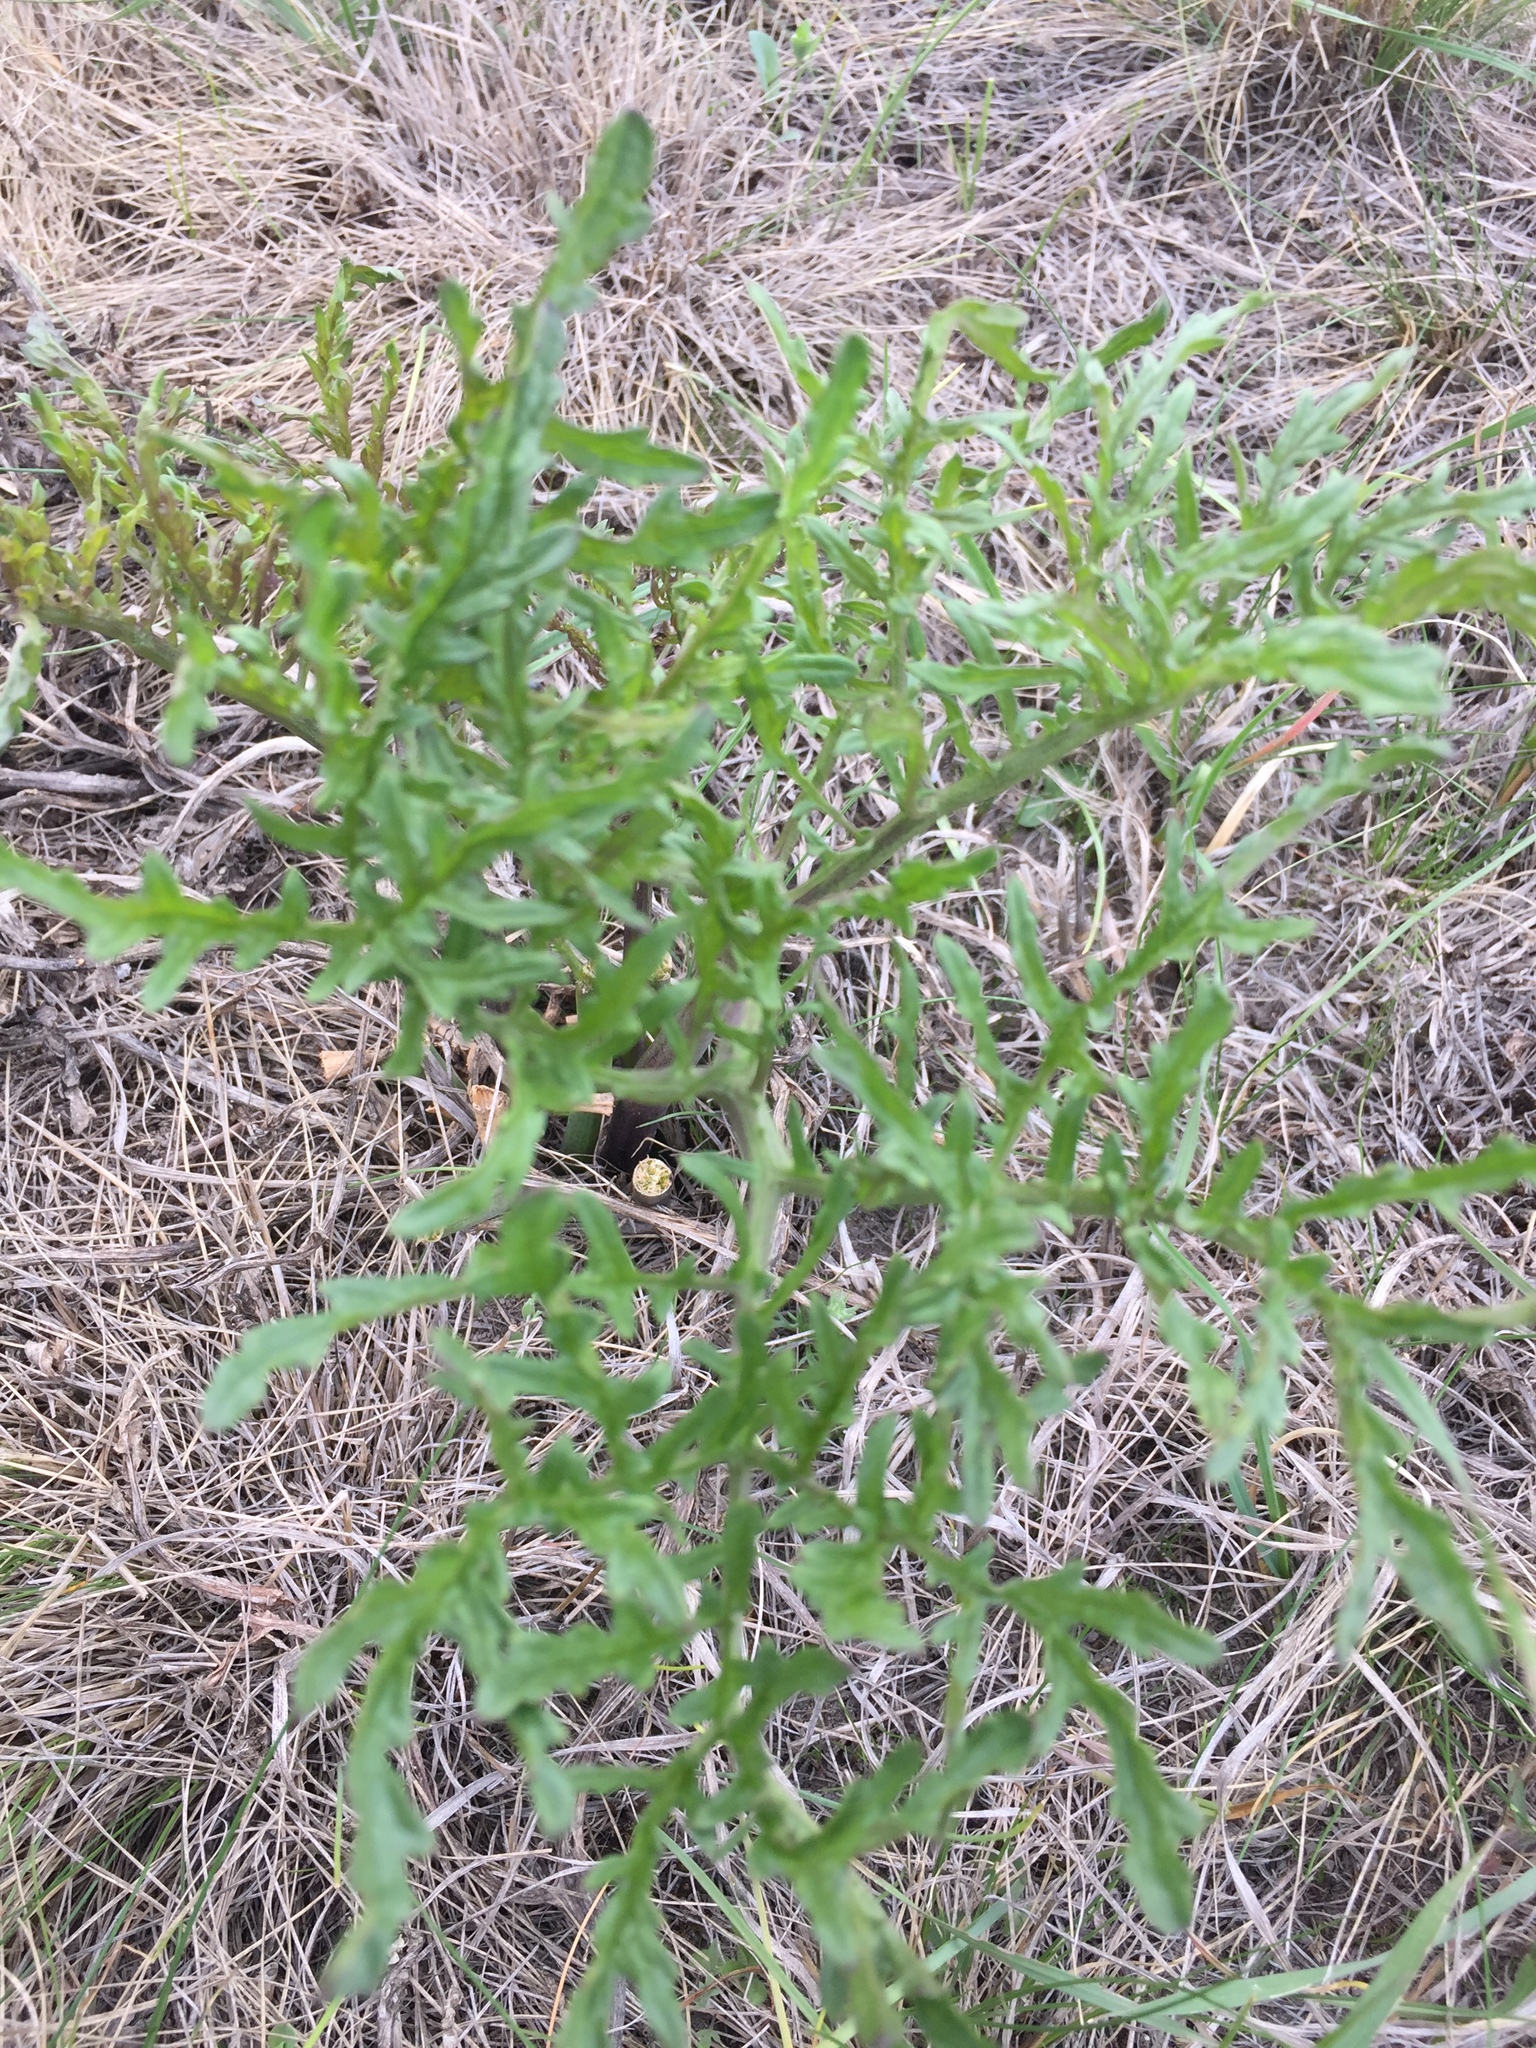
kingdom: Plantae
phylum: Tracheophyta
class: Magnoliopsida
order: Brassicales
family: Brassicaceae
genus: Crambe
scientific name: Crambe tataria
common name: Tartarian breadplant
